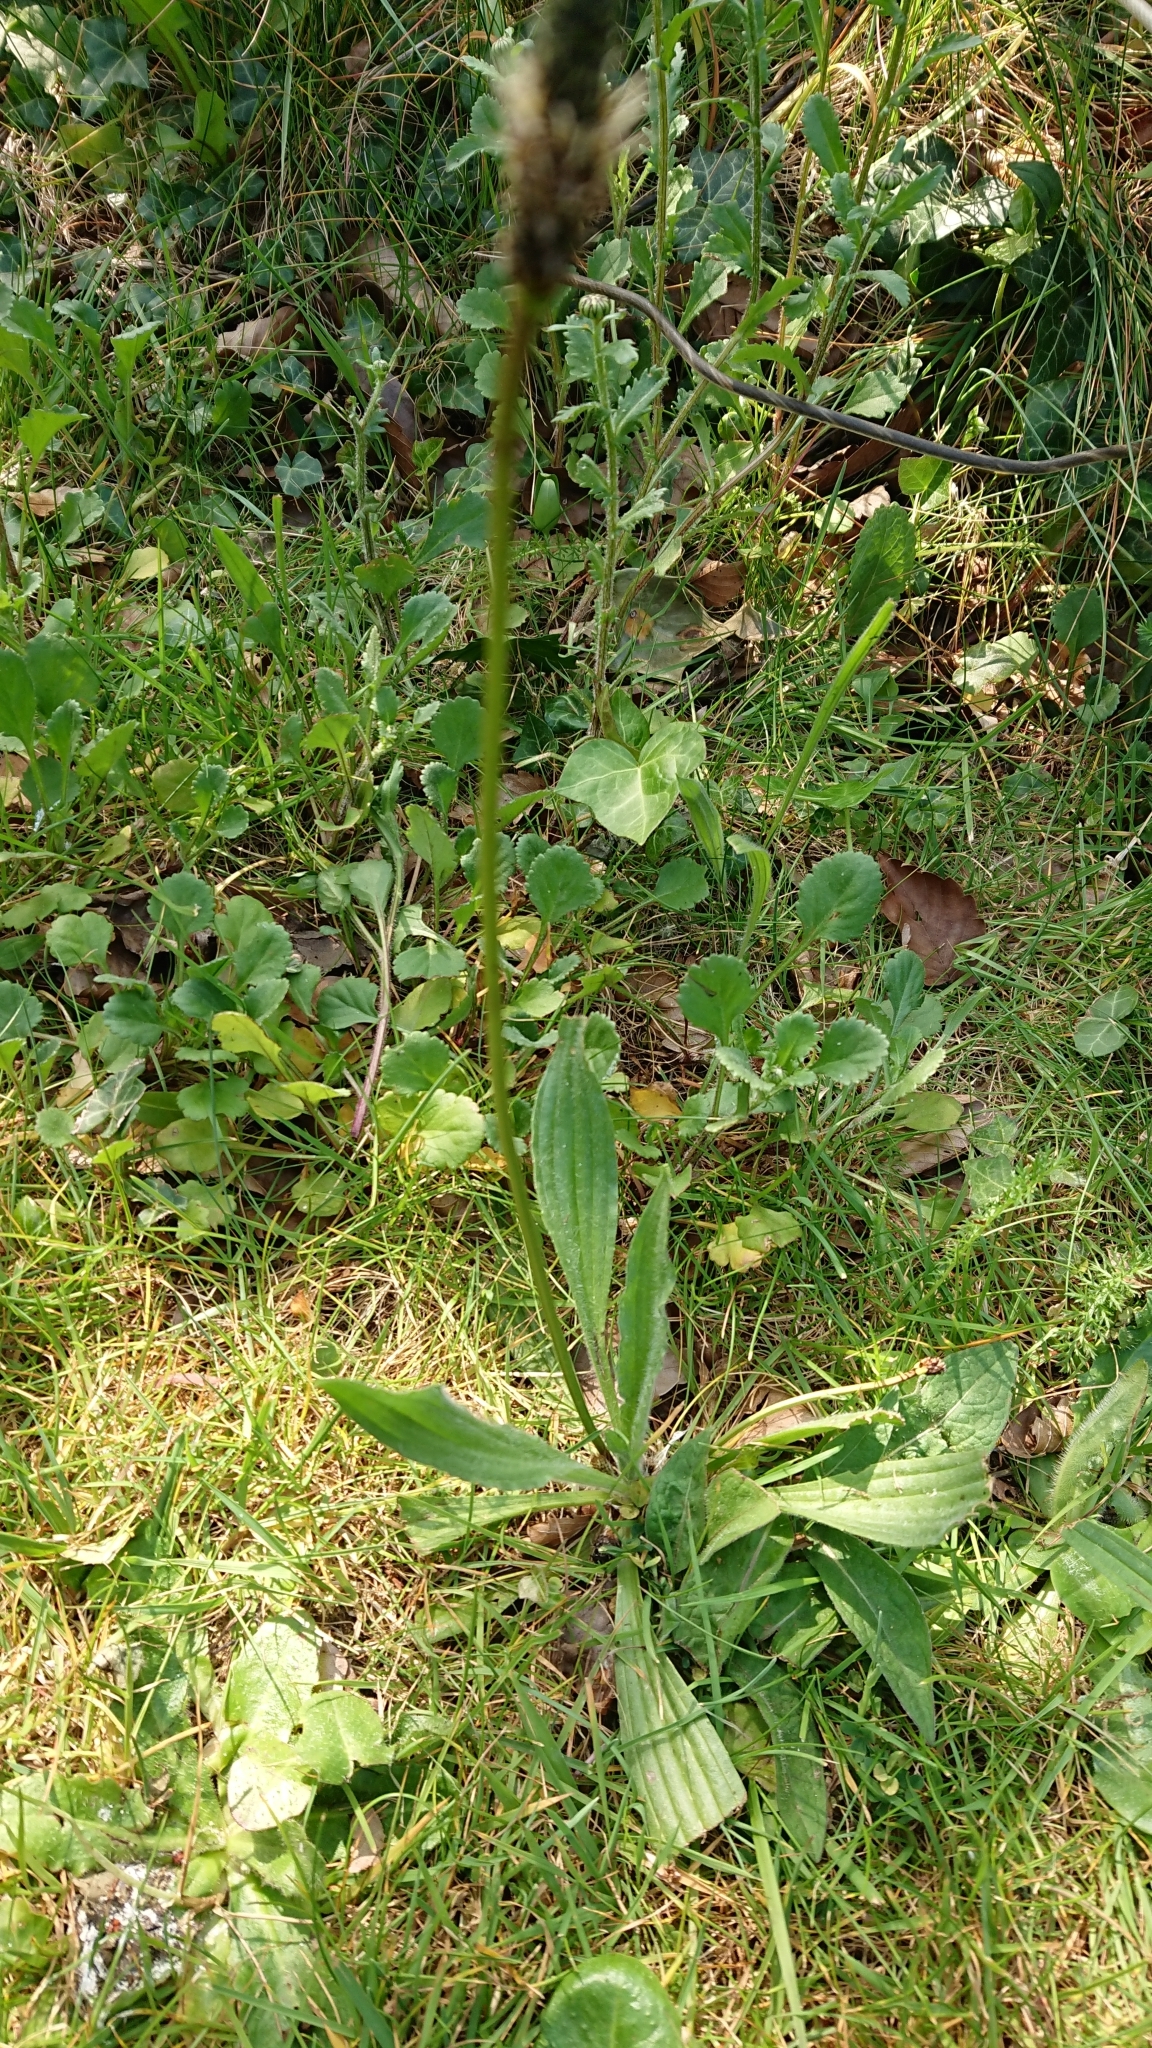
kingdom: Plantae
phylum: Tracheophyta
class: Magnoliopsida
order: Lamiales
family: Plantaginaceae
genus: Plantago
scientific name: Plantago lanceolata
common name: Ribwort plantain
